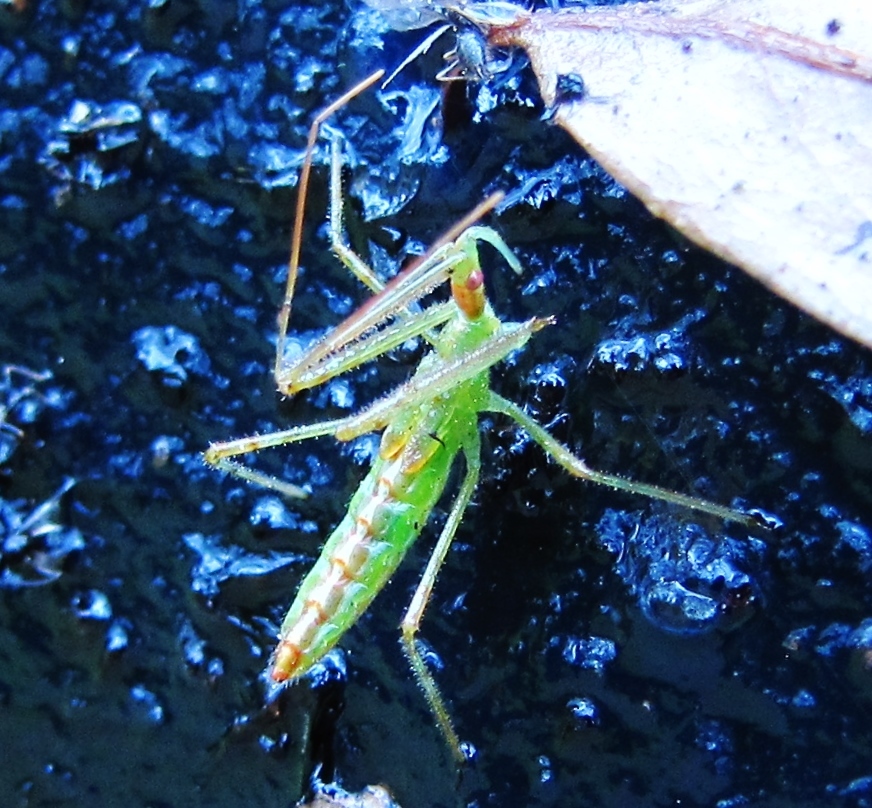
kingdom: Animalia
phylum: Arthropoda
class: Insecta
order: Hemiptera
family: Reduviidae
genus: Zelus
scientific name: Zelus luridus
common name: Pale green assassin bug
